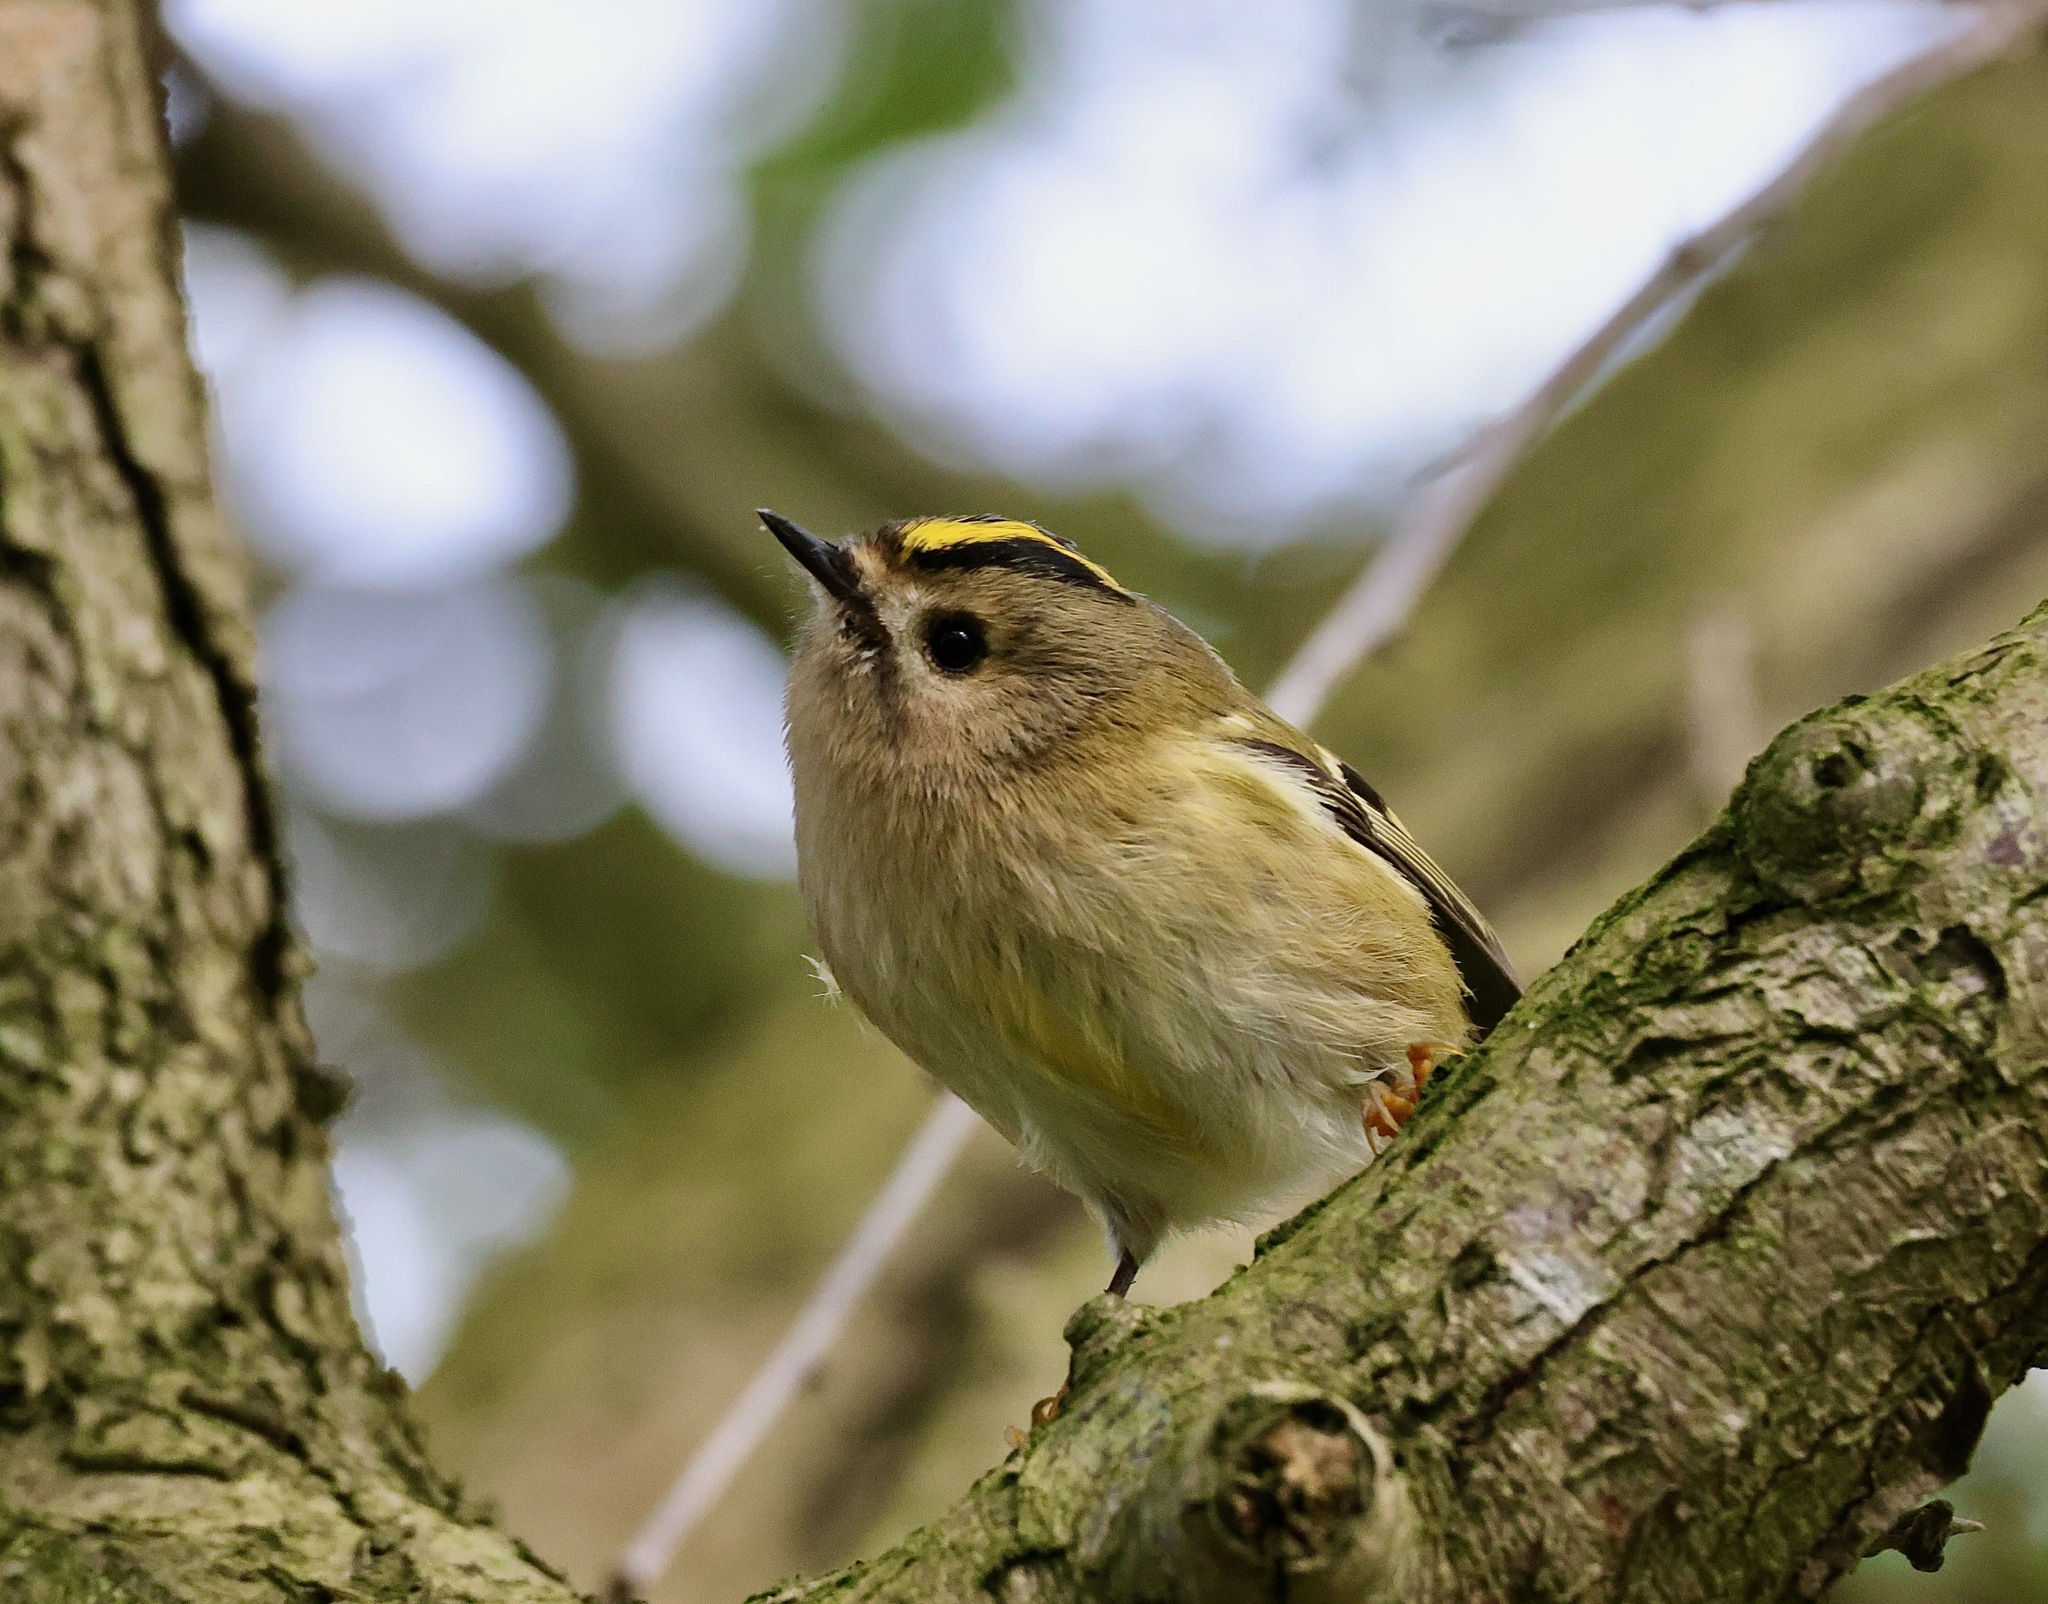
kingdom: Animalia
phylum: Chordata
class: Aves
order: Passeriformes
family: Regulidae
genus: Regulus
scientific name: Regulus regulus
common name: Goldcrest
